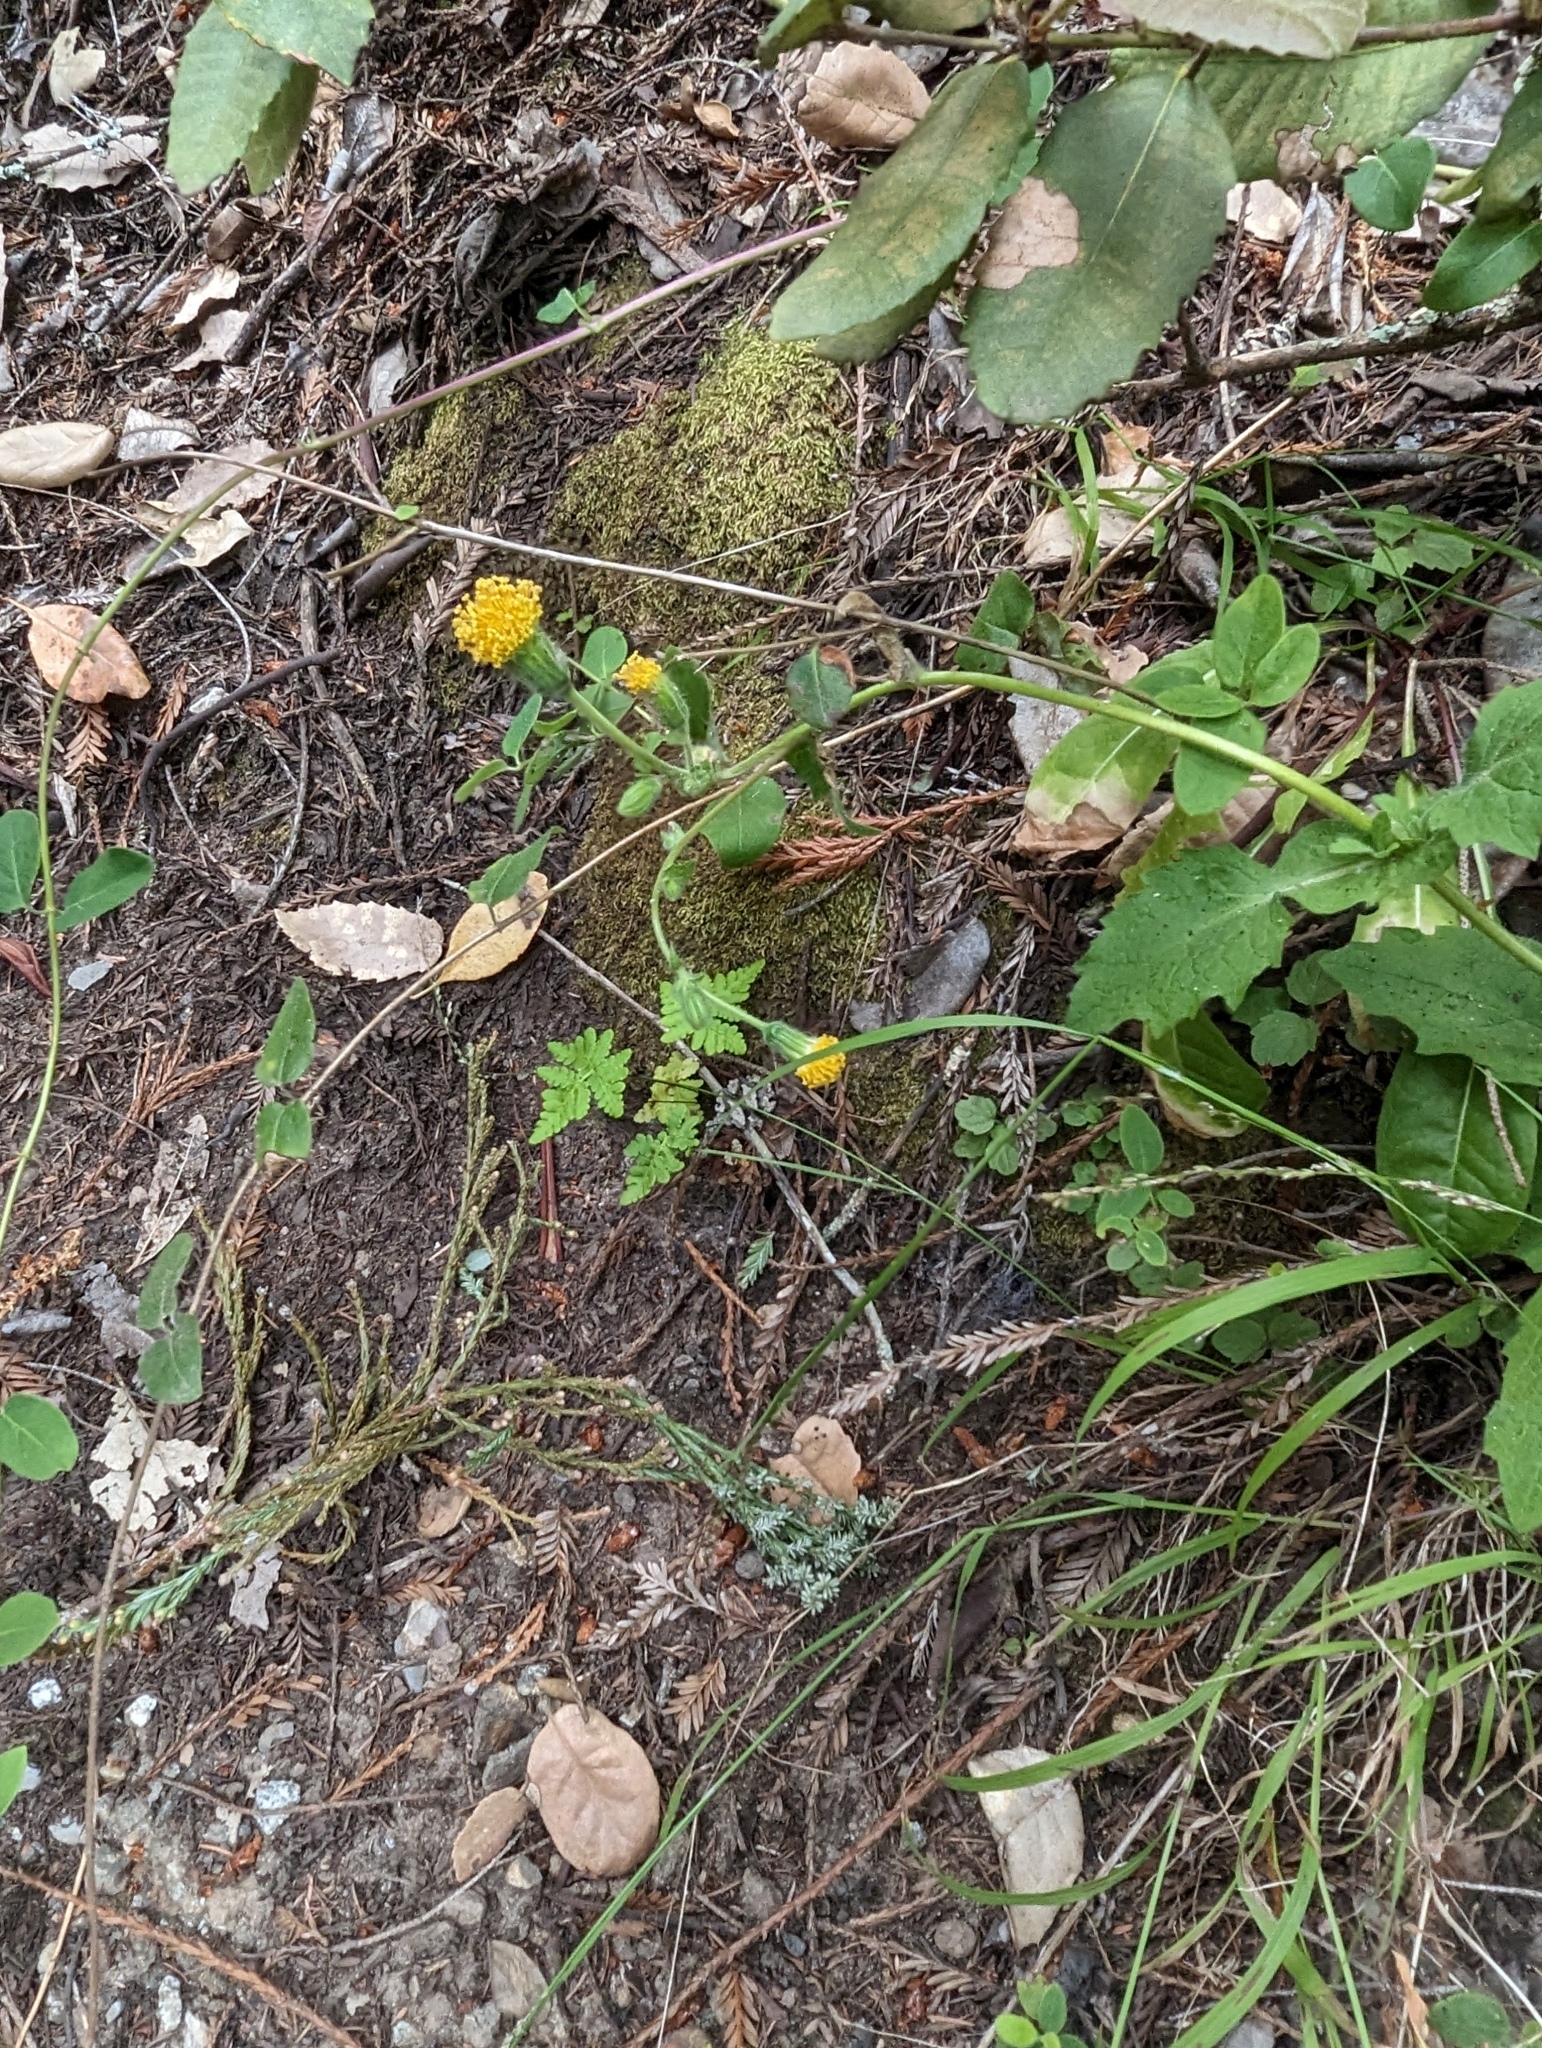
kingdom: Plantae
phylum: Tracheophyta
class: Magnoliopsida
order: Asterales
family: Asteraceae
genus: Arnica
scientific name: Arnica discoidea
